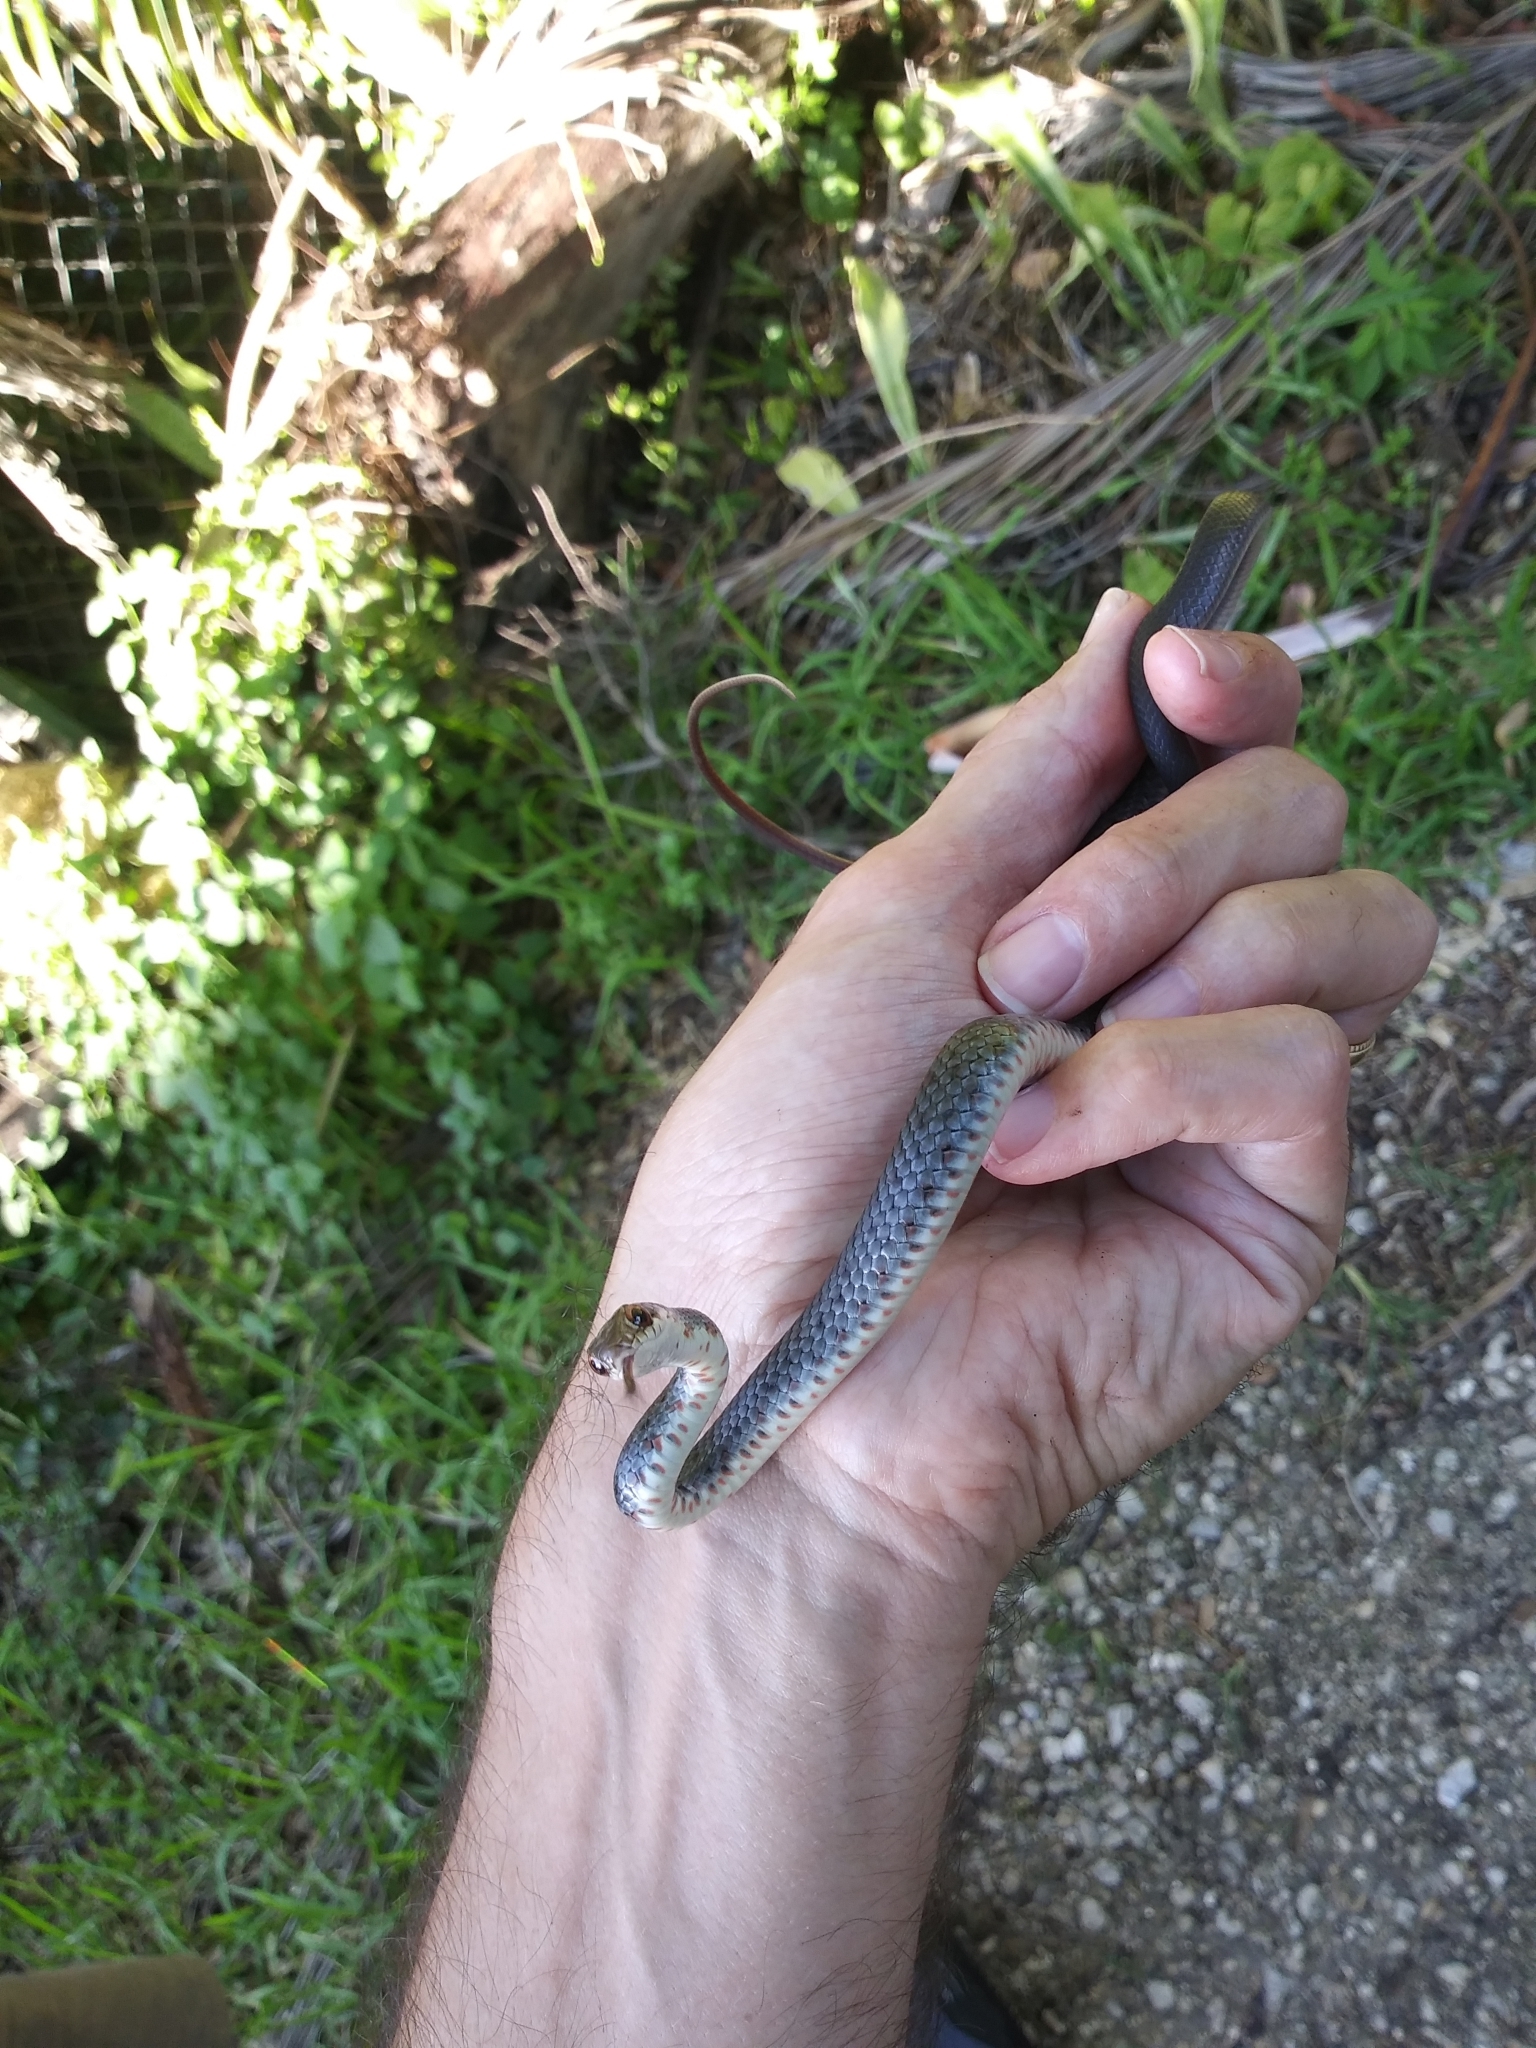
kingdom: Animalia
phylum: Chordata
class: Squamata
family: Colubridae
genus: Coluber
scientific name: Coluber constrictor
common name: Eastern racer
